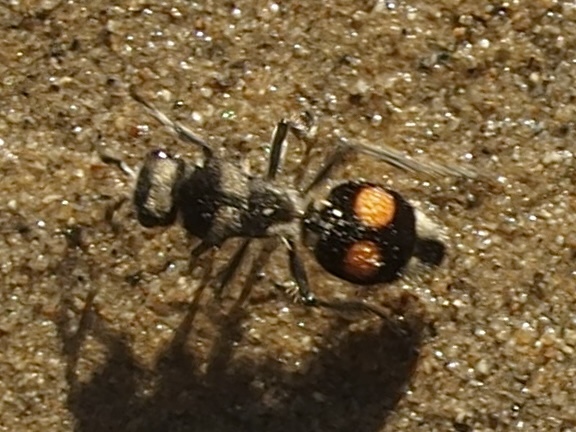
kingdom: Animalia
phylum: Arthropoda
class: Insecta
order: Hymenoptera
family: Mutillidae
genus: Hoplomutilla
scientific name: Hoplomutilla
